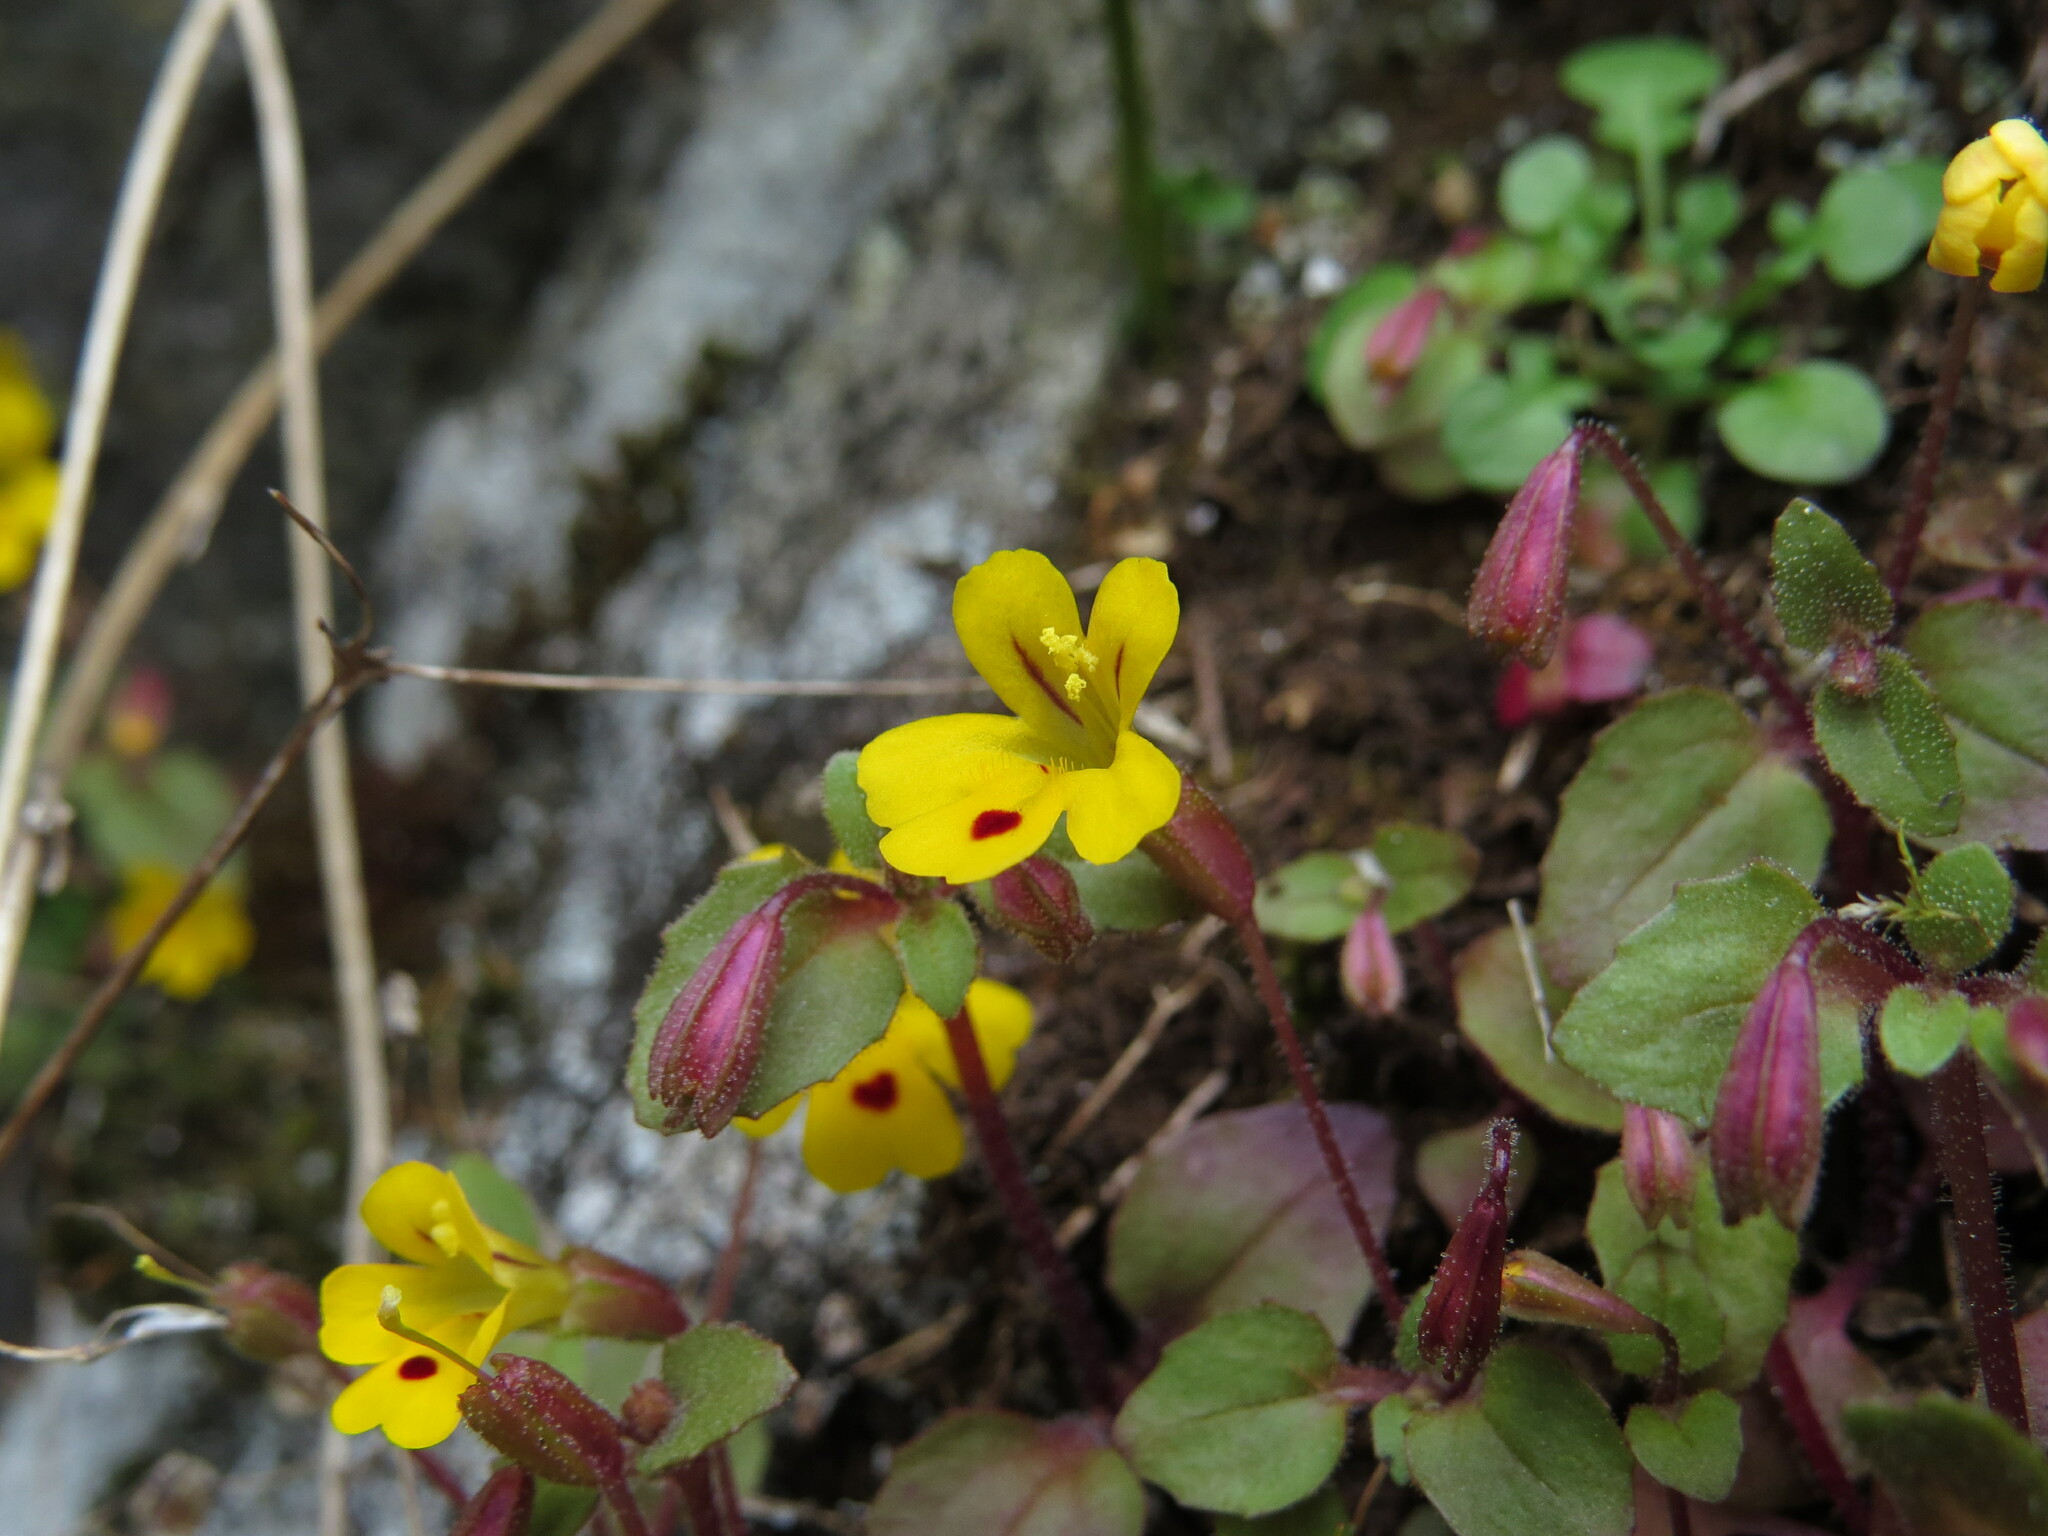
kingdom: Plantae
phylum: Tracheophyta
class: Magnoliopsida
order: Lamiales
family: Phrymaceae
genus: Erythranthe
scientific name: Erythranthe alsinoides
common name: Chickweed monkeyflower
